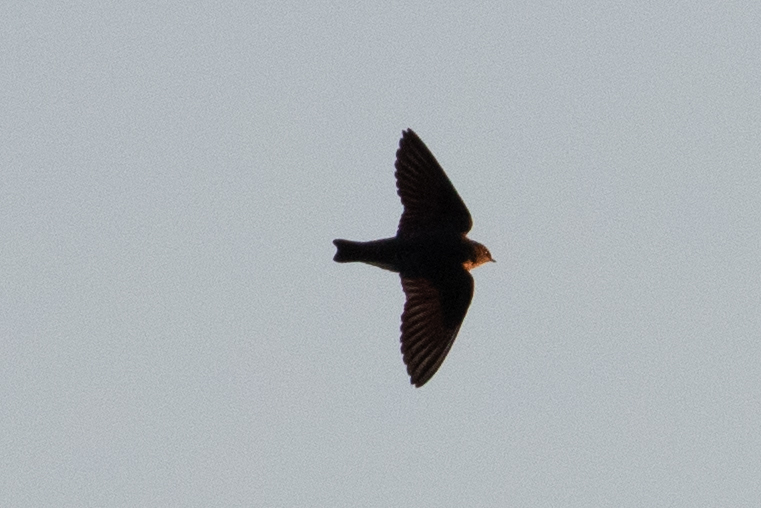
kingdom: Animalia
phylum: Chordata
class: Aves
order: Passeriformes
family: Hirundinidae
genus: Stelgidopteryx
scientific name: Stelgidopteryx serripennis
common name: Northern rough-winged swallow
